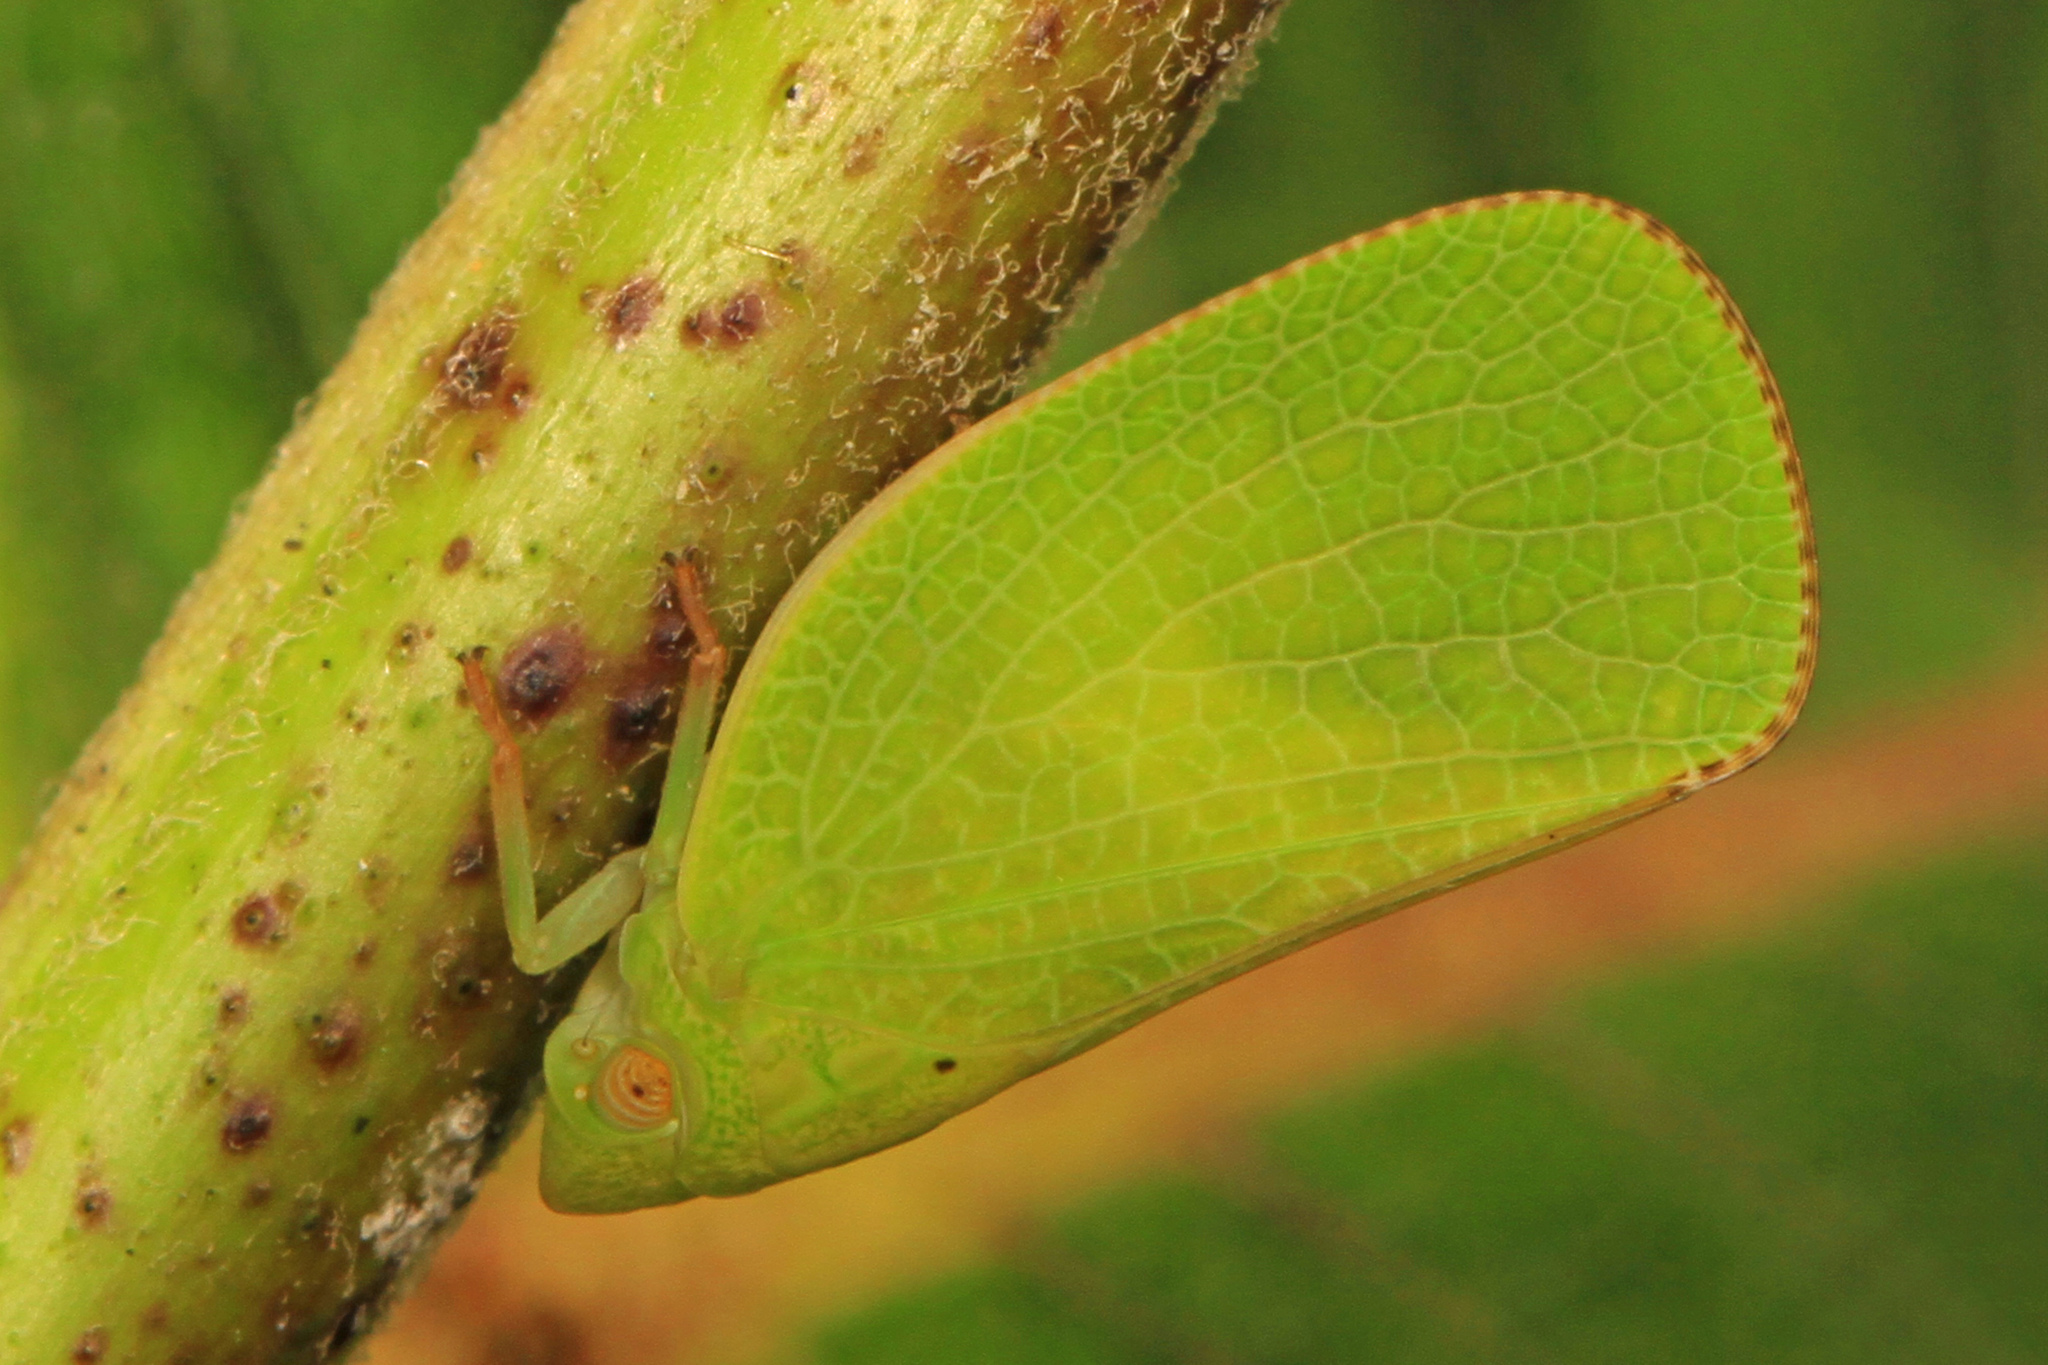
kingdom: Animalia
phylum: Arthropoda
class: Insecta
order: Hemiptera
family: Acanaloniidae
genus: Acanalonia
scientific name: Acanalonia conica
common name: Green cone-headed planthopper
